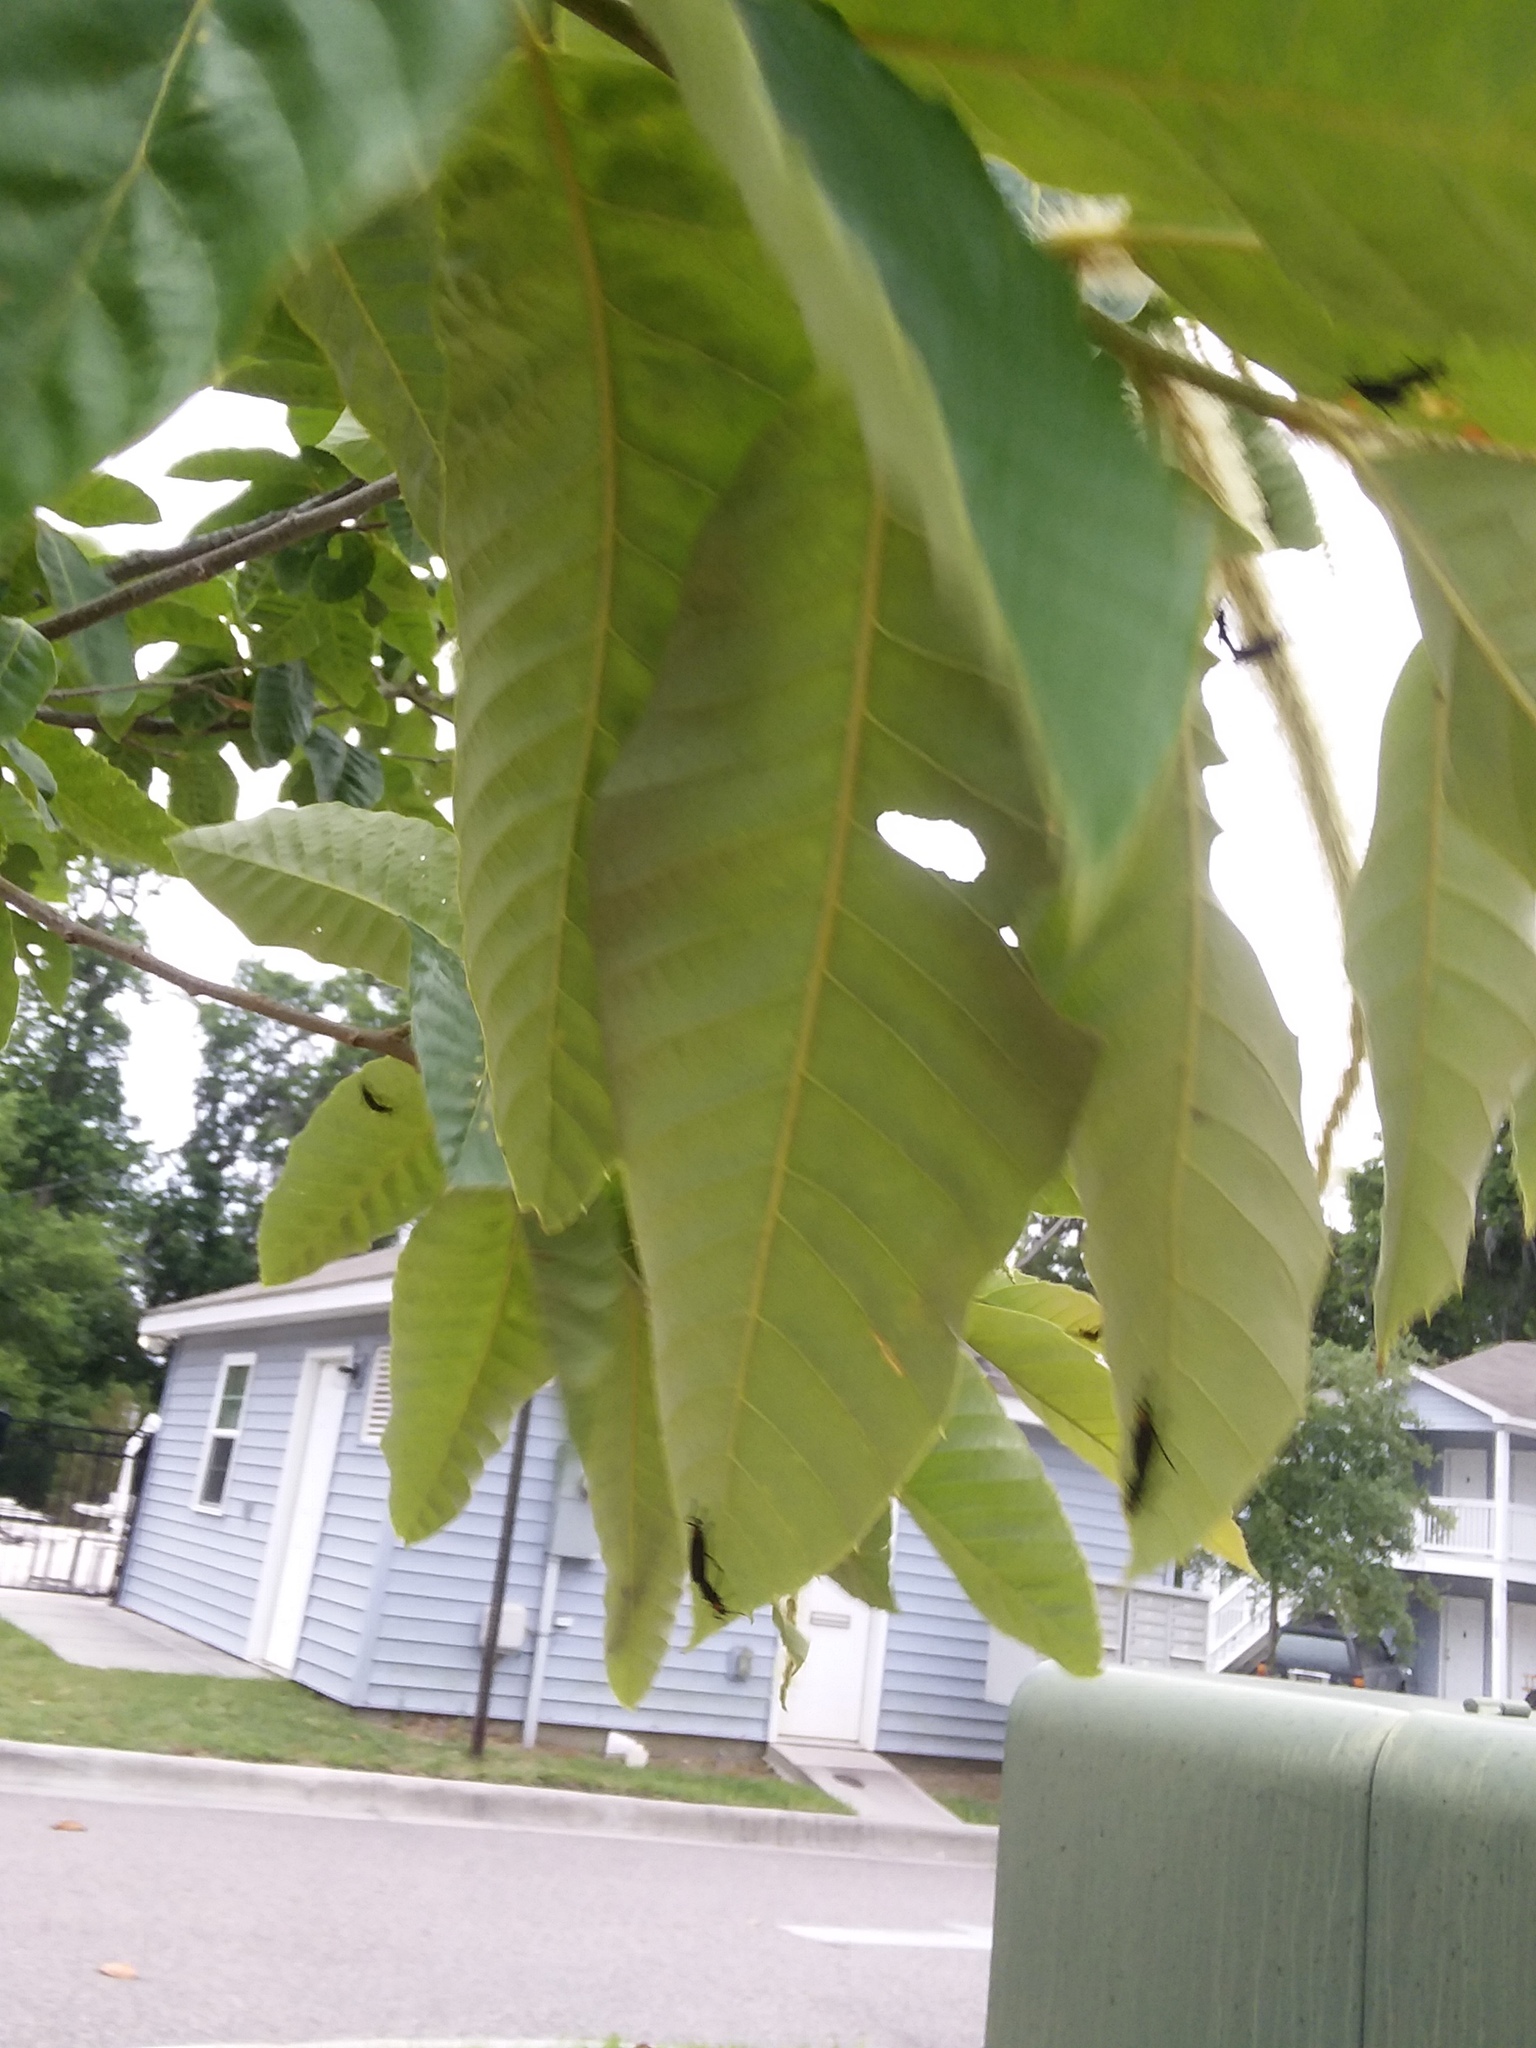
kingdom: Animalia
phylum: Arthropoda
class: Insecta
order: Diptera
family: Bibionidae
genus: Plecia
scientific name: Plecia nearctica
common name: March fly
